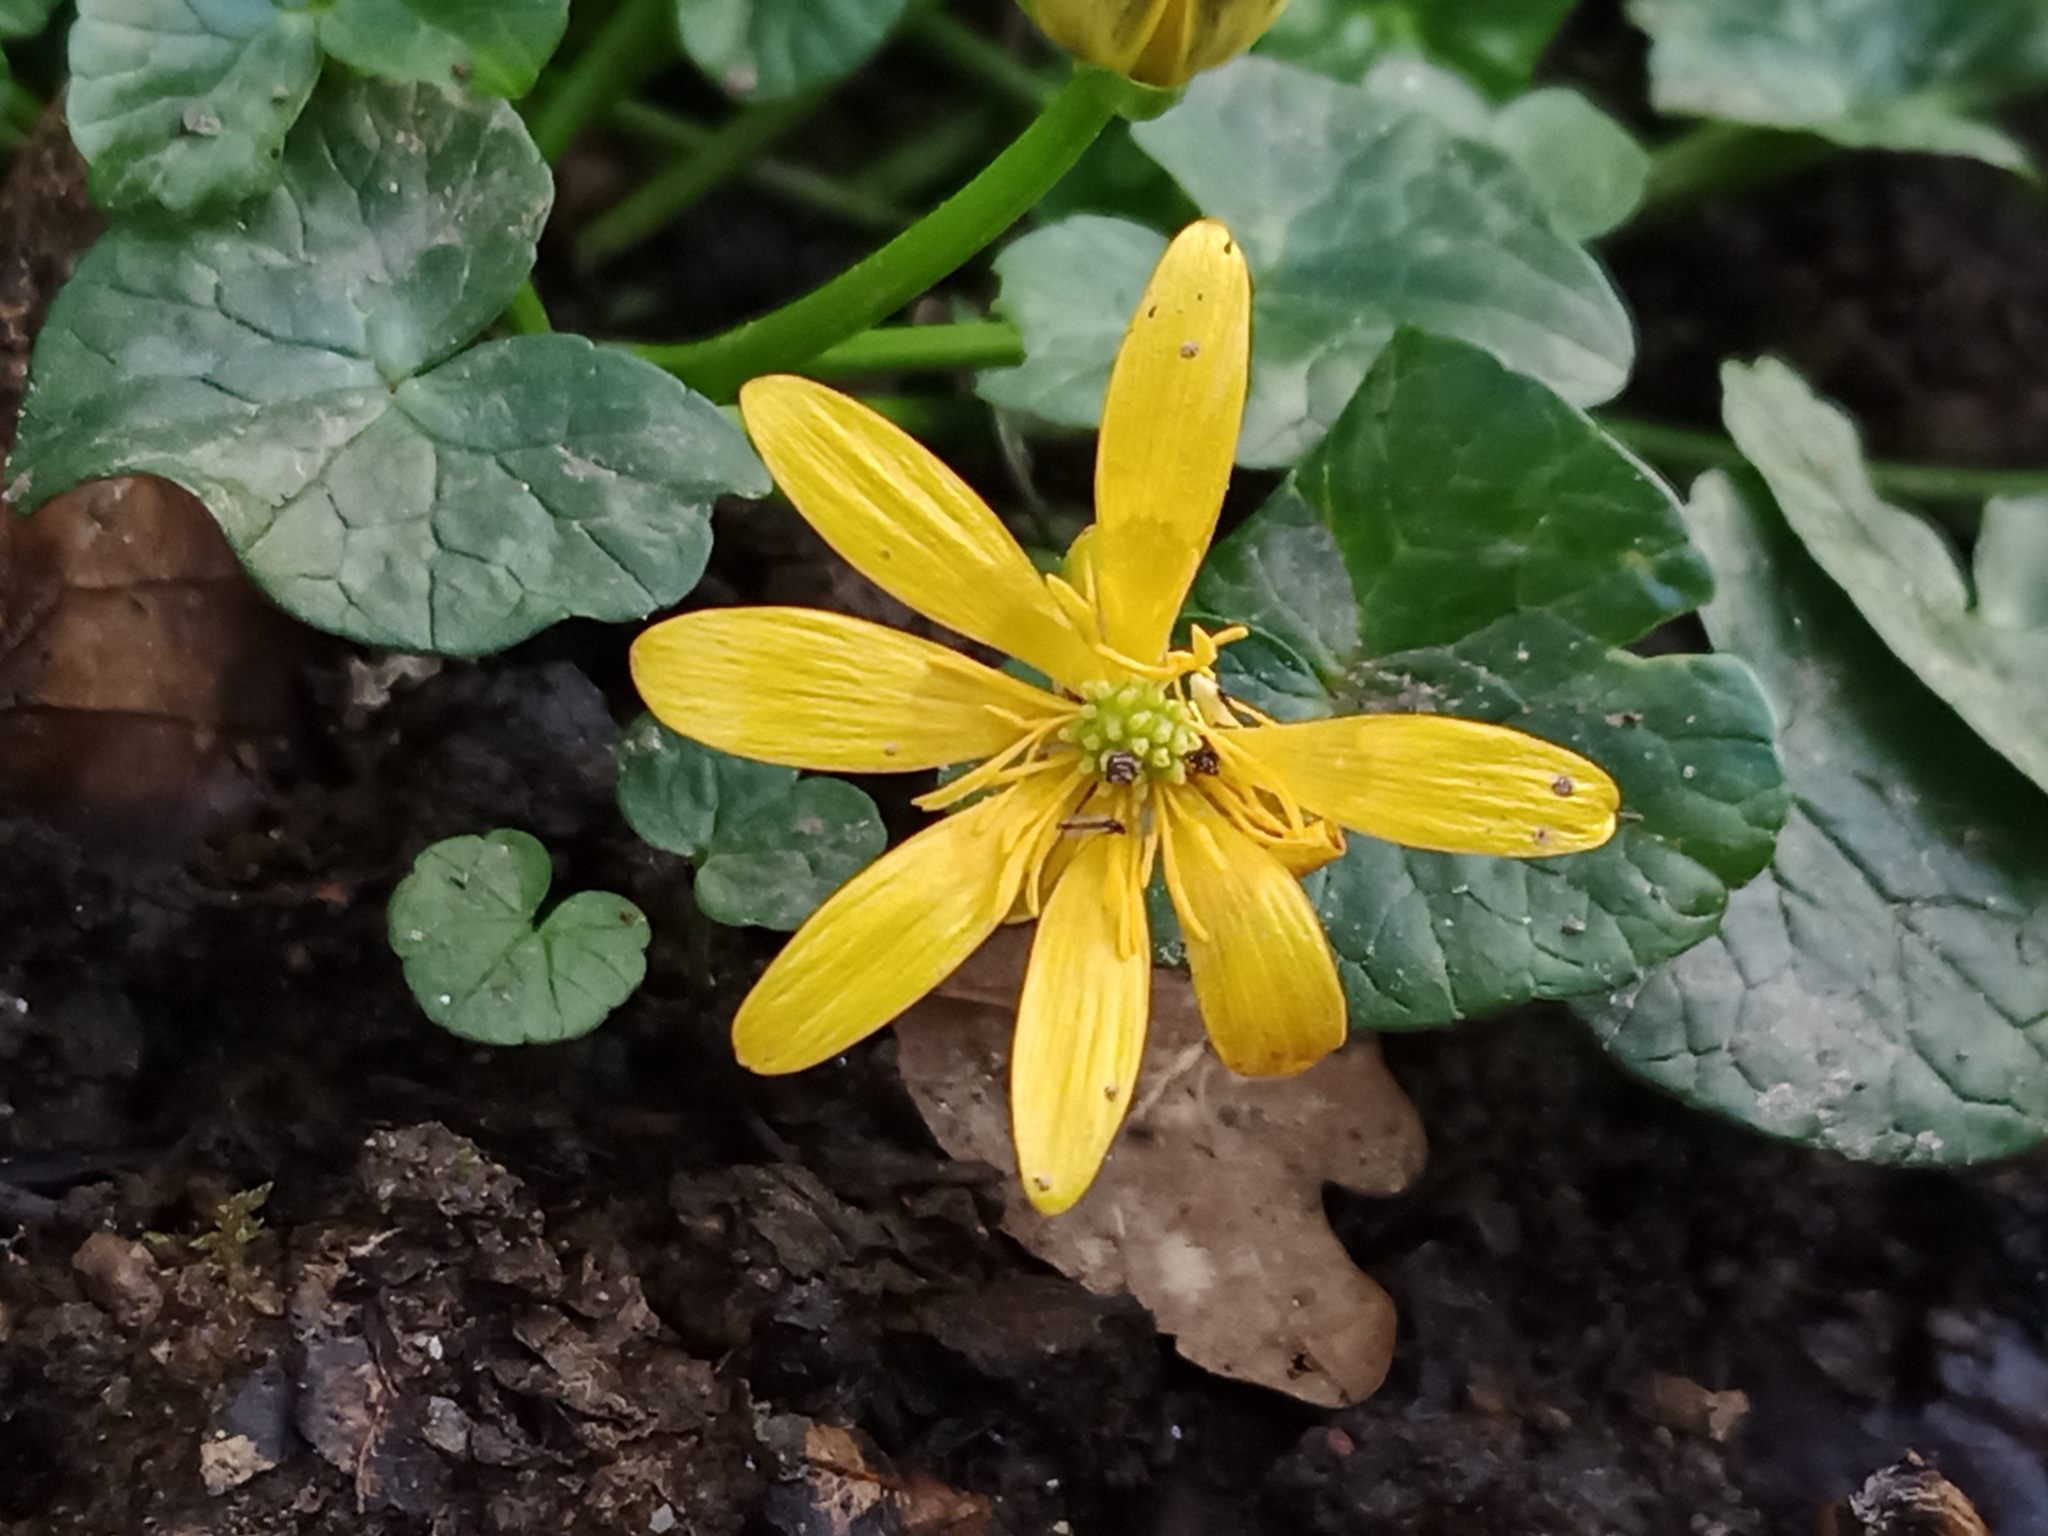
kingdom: Plantae
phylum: Tracheophyta
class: Magnoliopsida
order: Ranunculales
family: Ranunculaceae
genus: Ficaria
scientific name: Ficaria verna
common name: Lesser celandine
